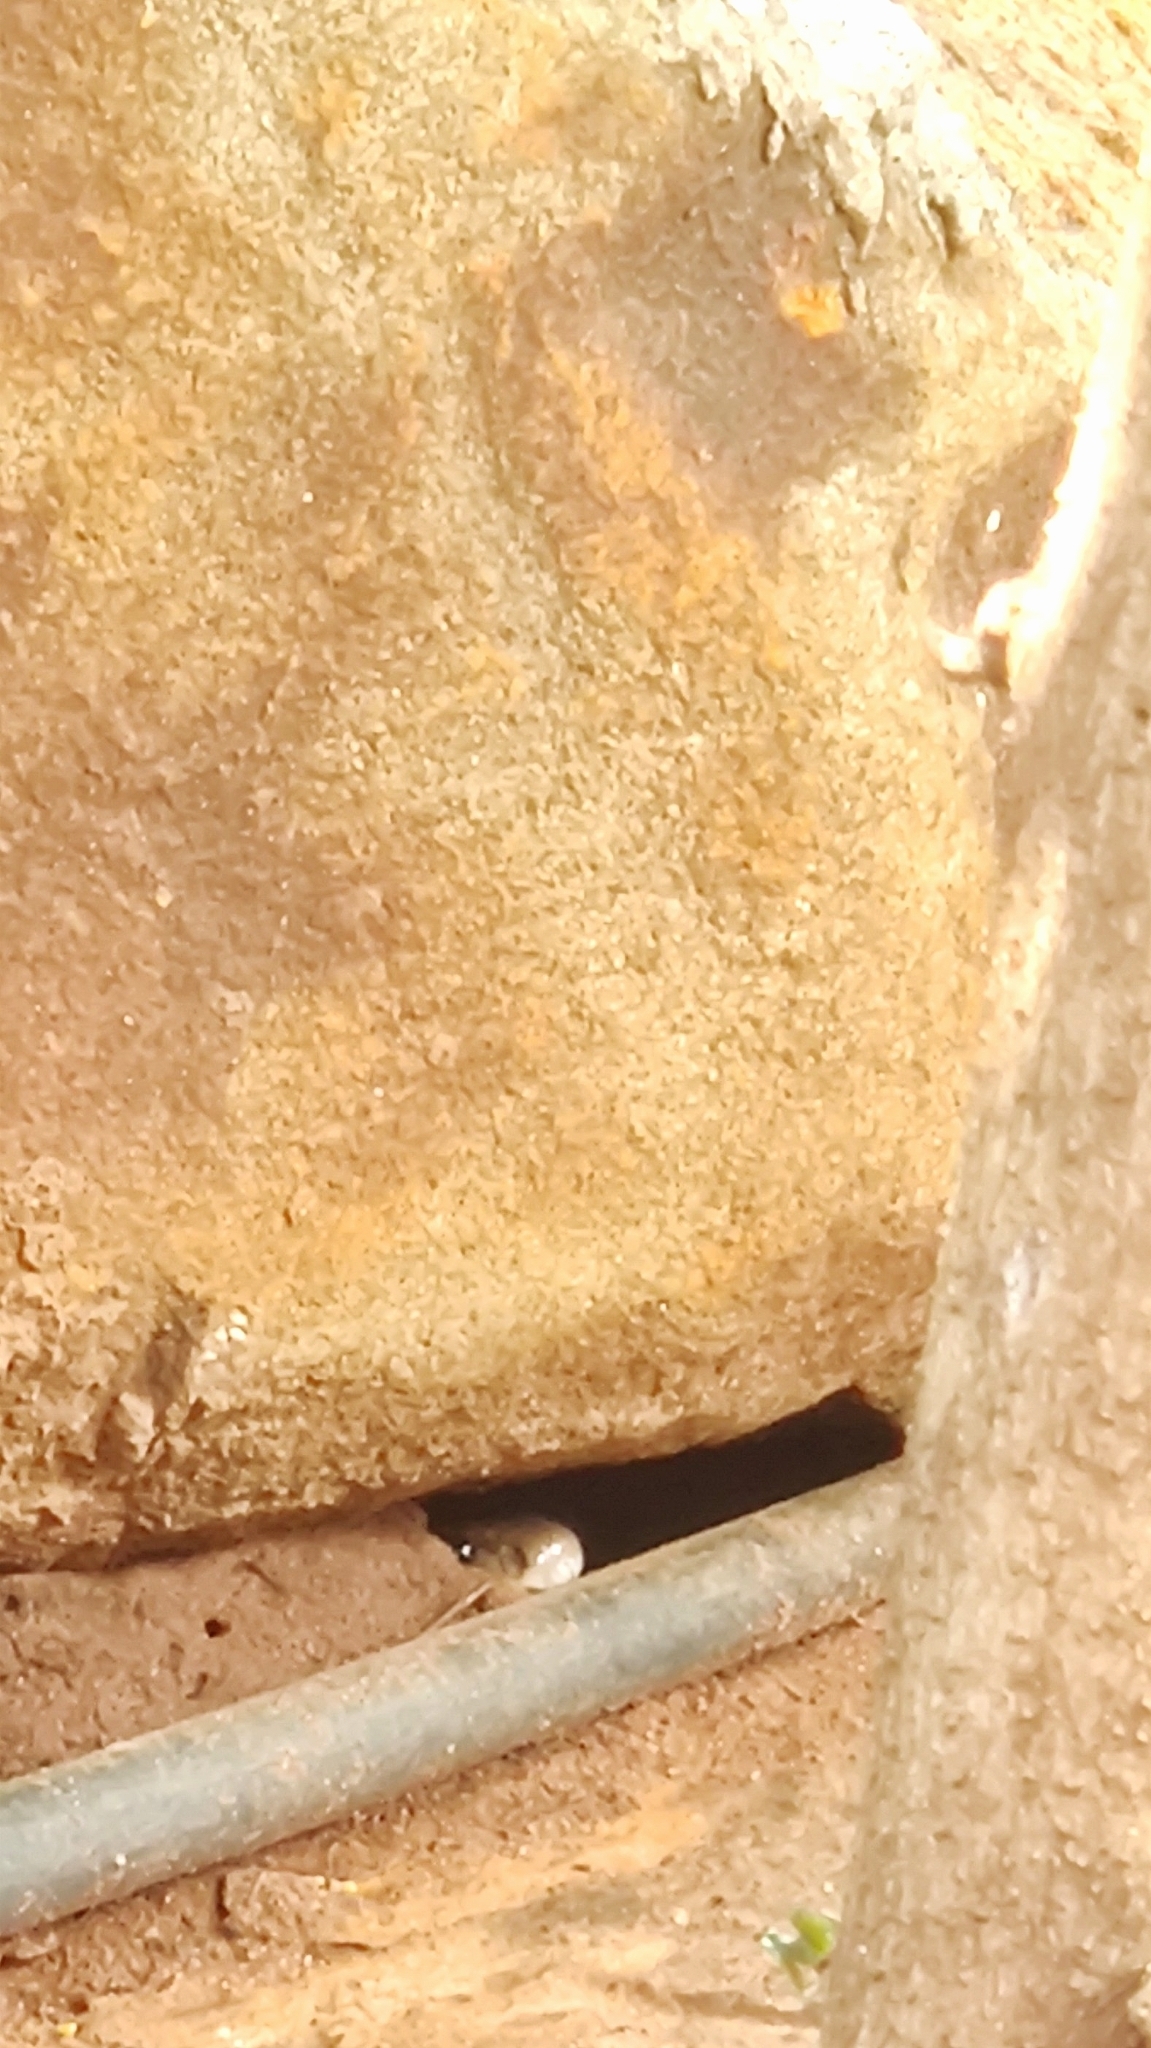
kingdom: Animalia
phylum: Chordata
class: Squamata
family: Elapidae
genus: Naja
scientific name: Naja naja
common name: Indian cobra
